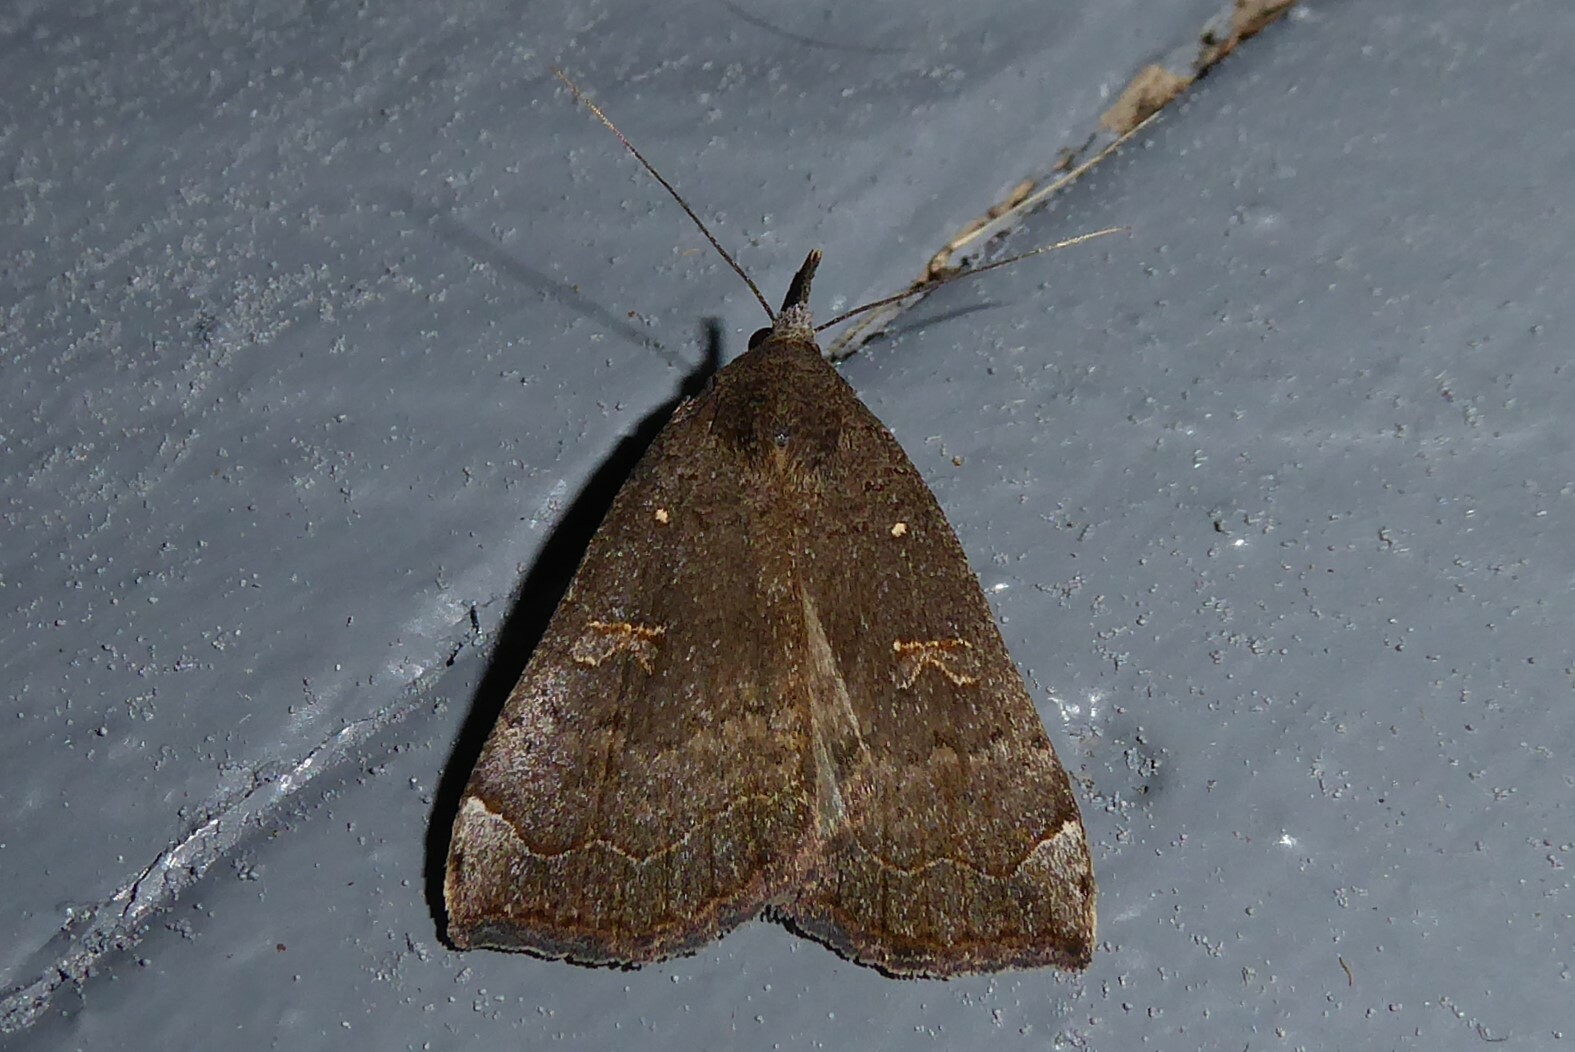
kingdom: Animalia
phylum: Arthropoda
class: Insecta
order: Lepidoptera
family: Erebidae
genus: Rhapsa
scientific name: Rhapsa scotosialis
